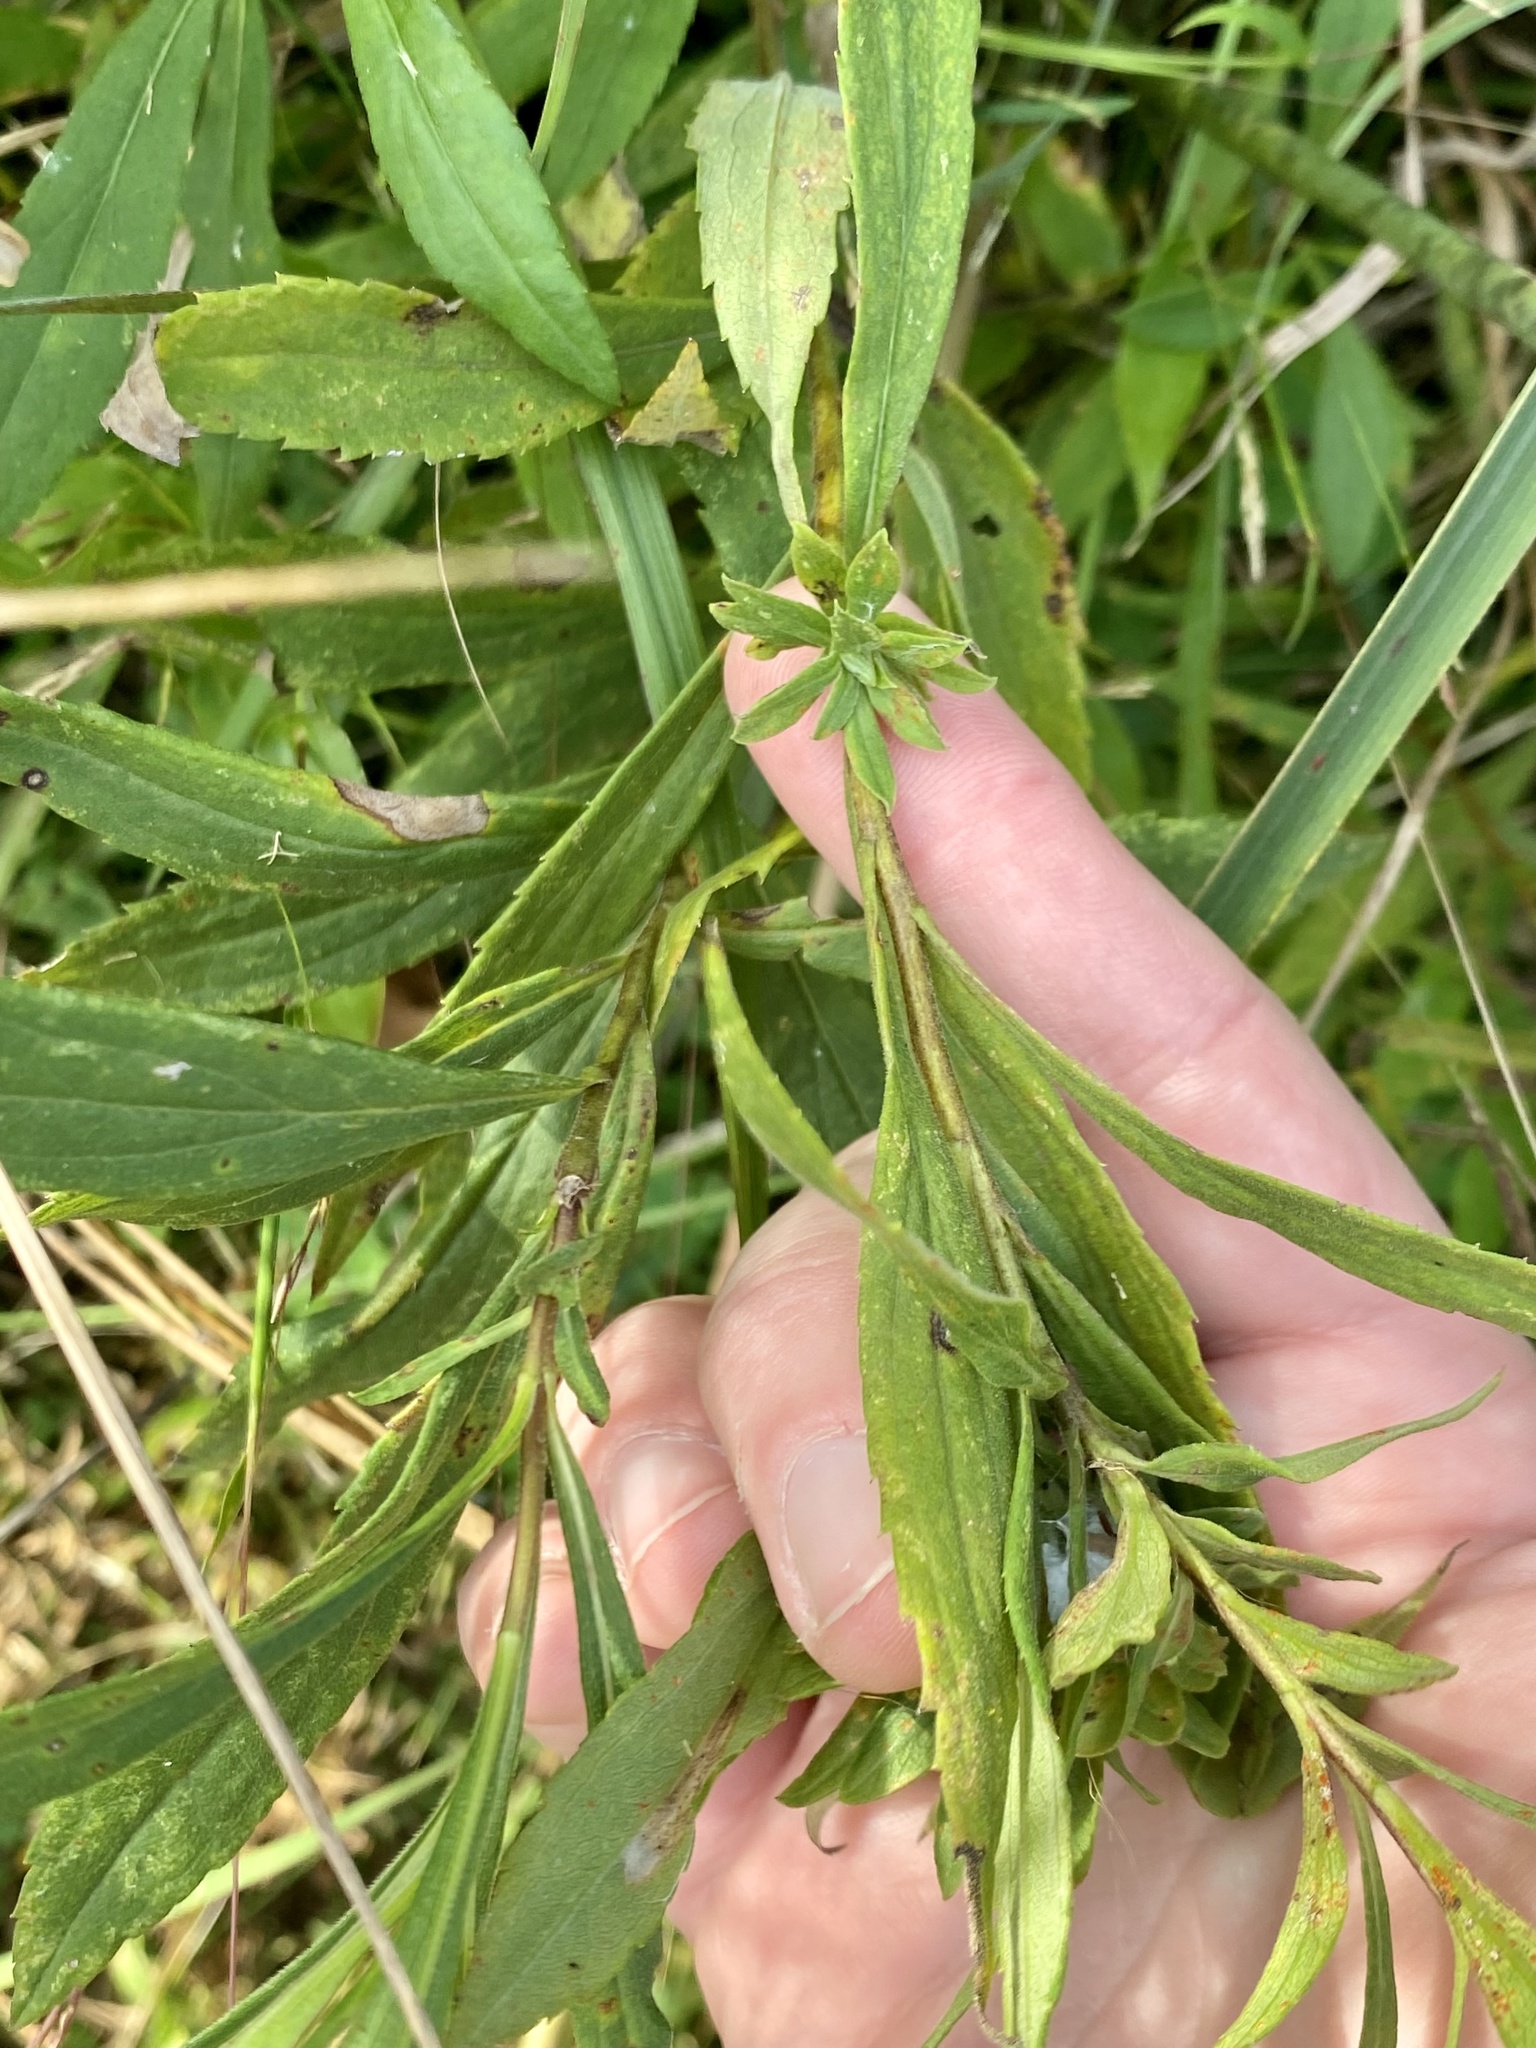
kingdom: Animalia
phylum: Arthropoda
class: Insecta
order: Diptera
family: Tephritidae
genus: Procecidochares
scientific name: Procecidochares atra
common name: Goldenrod brussels sprout gall fly
